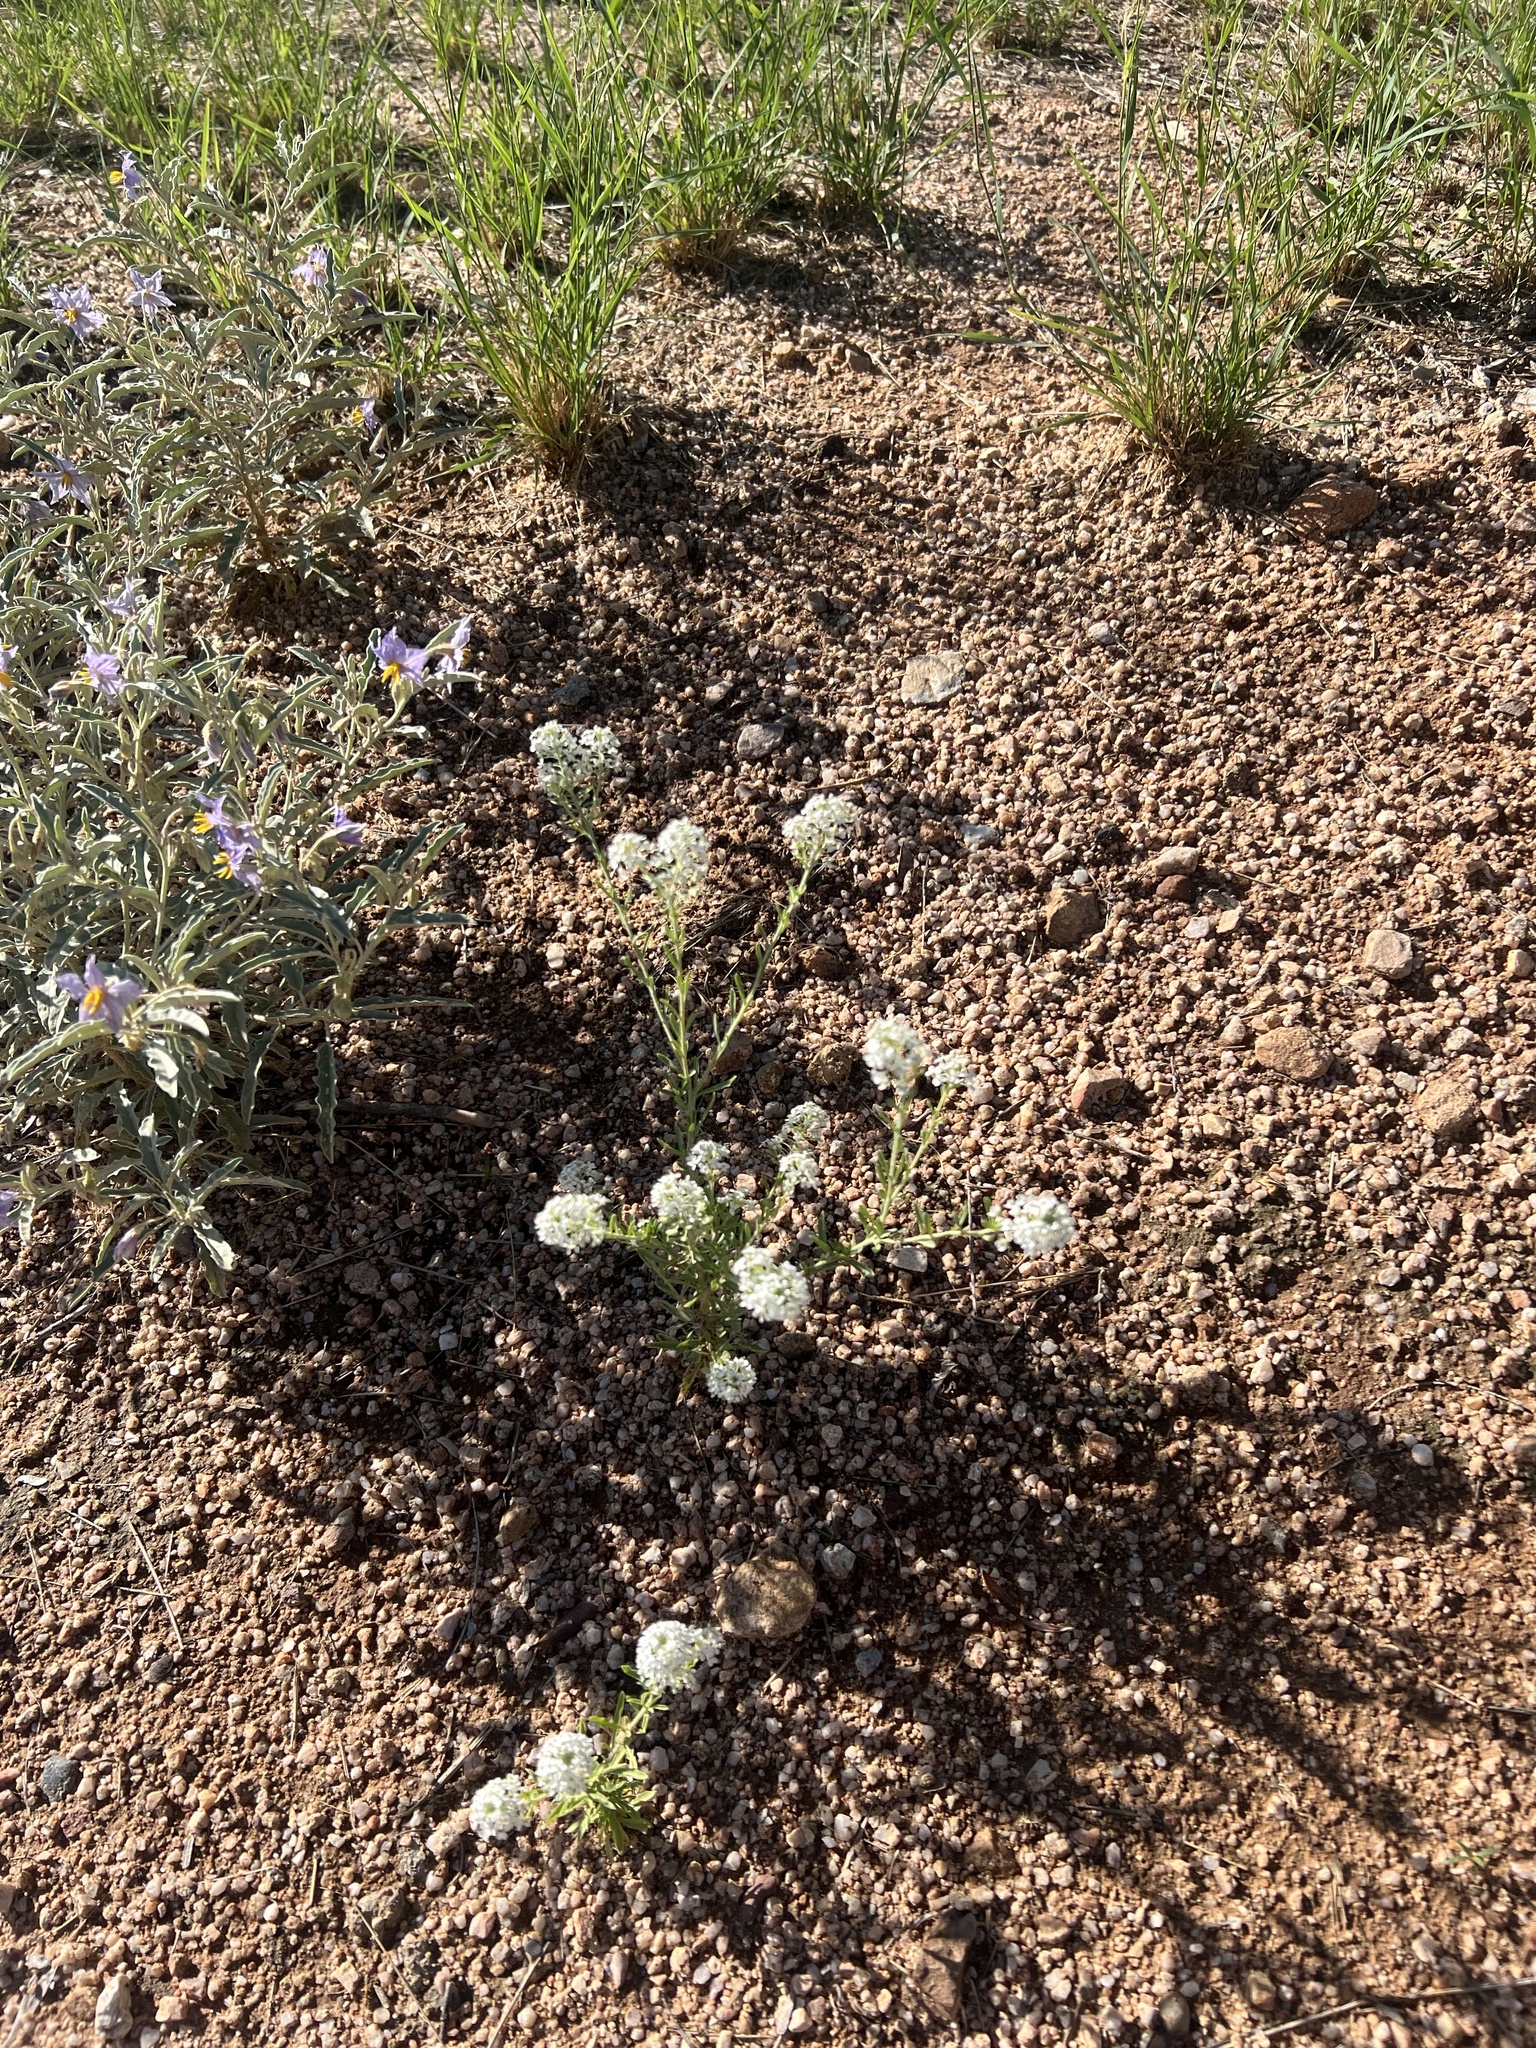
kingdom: Plantae
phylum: Tracheophyta
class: Magnoliopsida
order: Brassicales
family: Brassicaceae
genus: Lepidium
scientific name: Lepidium thurberi
